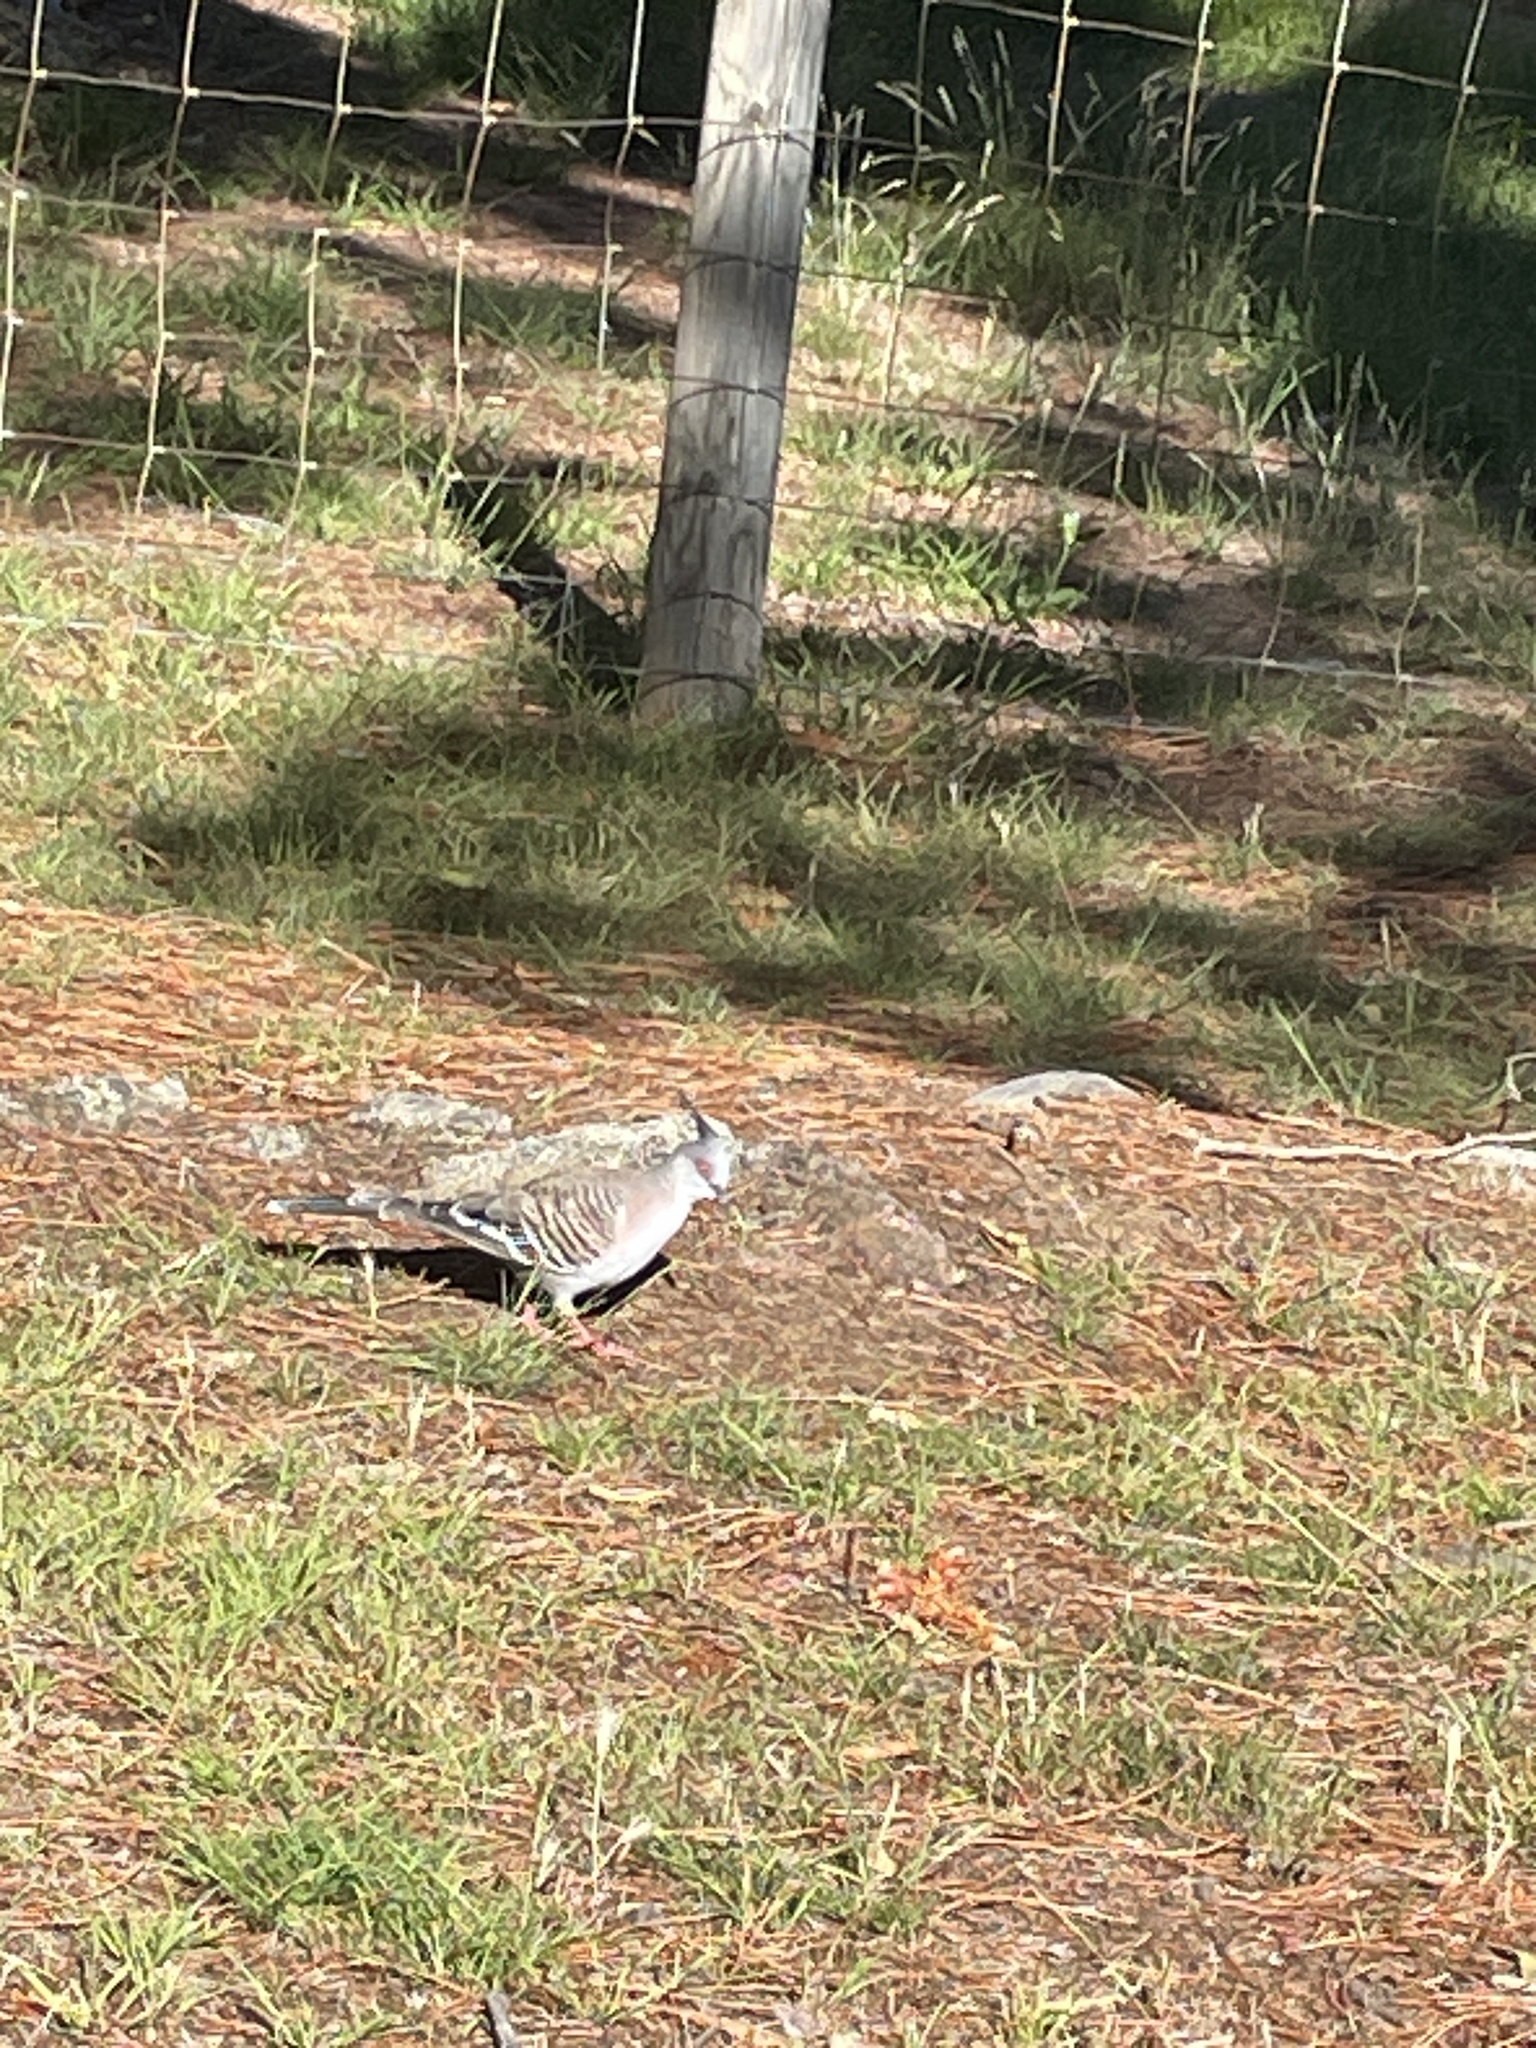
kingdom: Animalia
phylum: Chordata
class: Aves
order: Columbiformes
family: Columbidae
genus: Ocyphaps
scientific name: Ocyphaps lophotes
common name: Crested pigeon
